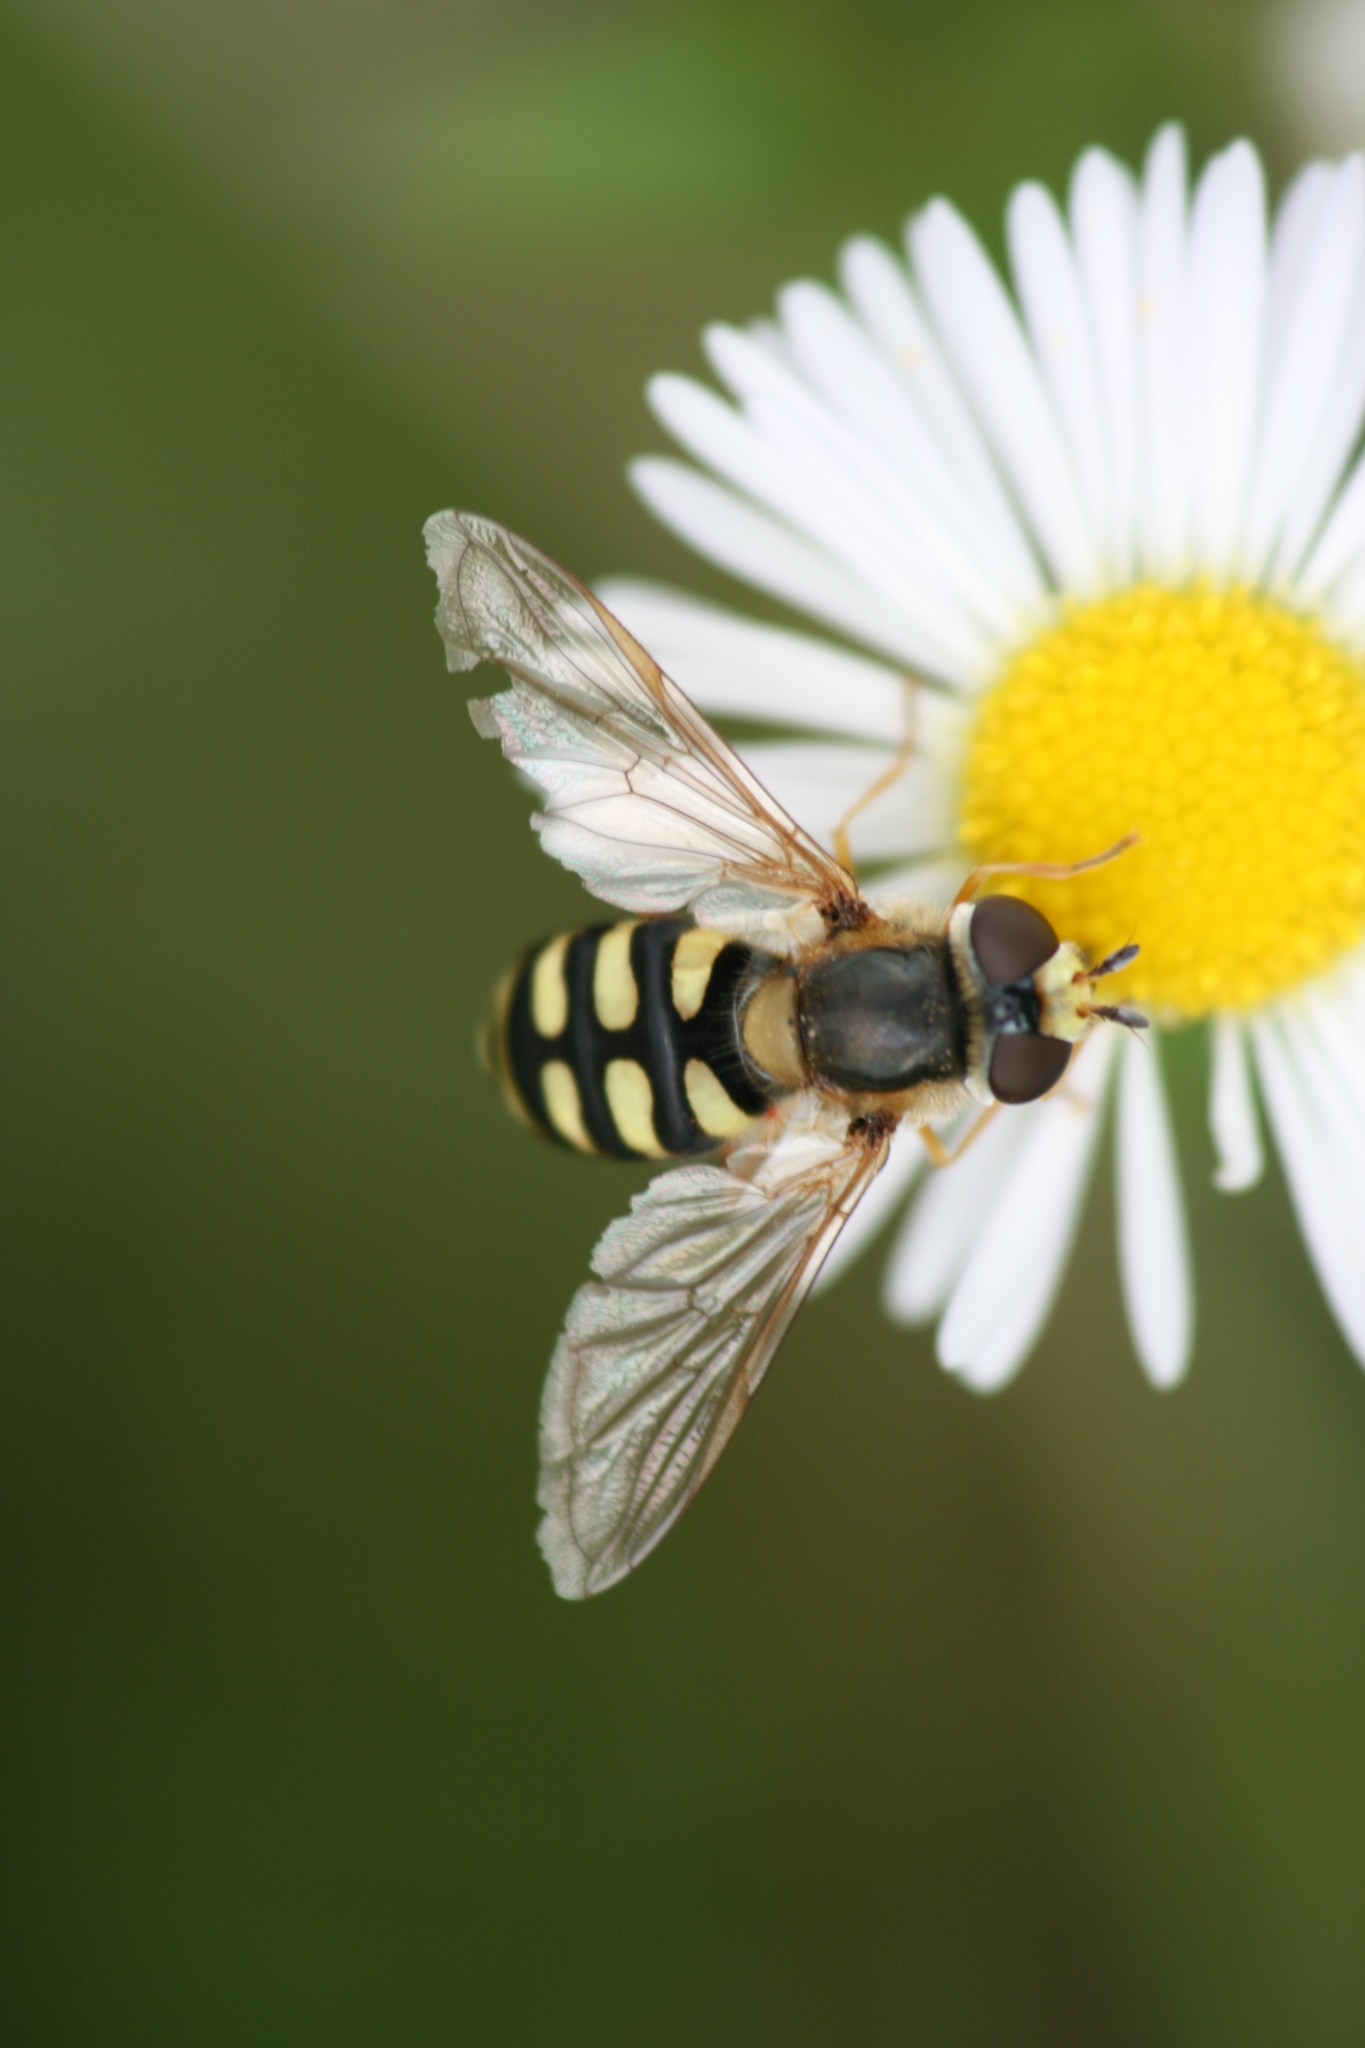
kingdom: Animalia
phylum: Arthropoda
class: Insecta
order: Diptera
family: Syrphidae
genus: Eupeodes
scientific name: Eupeodes corollae
